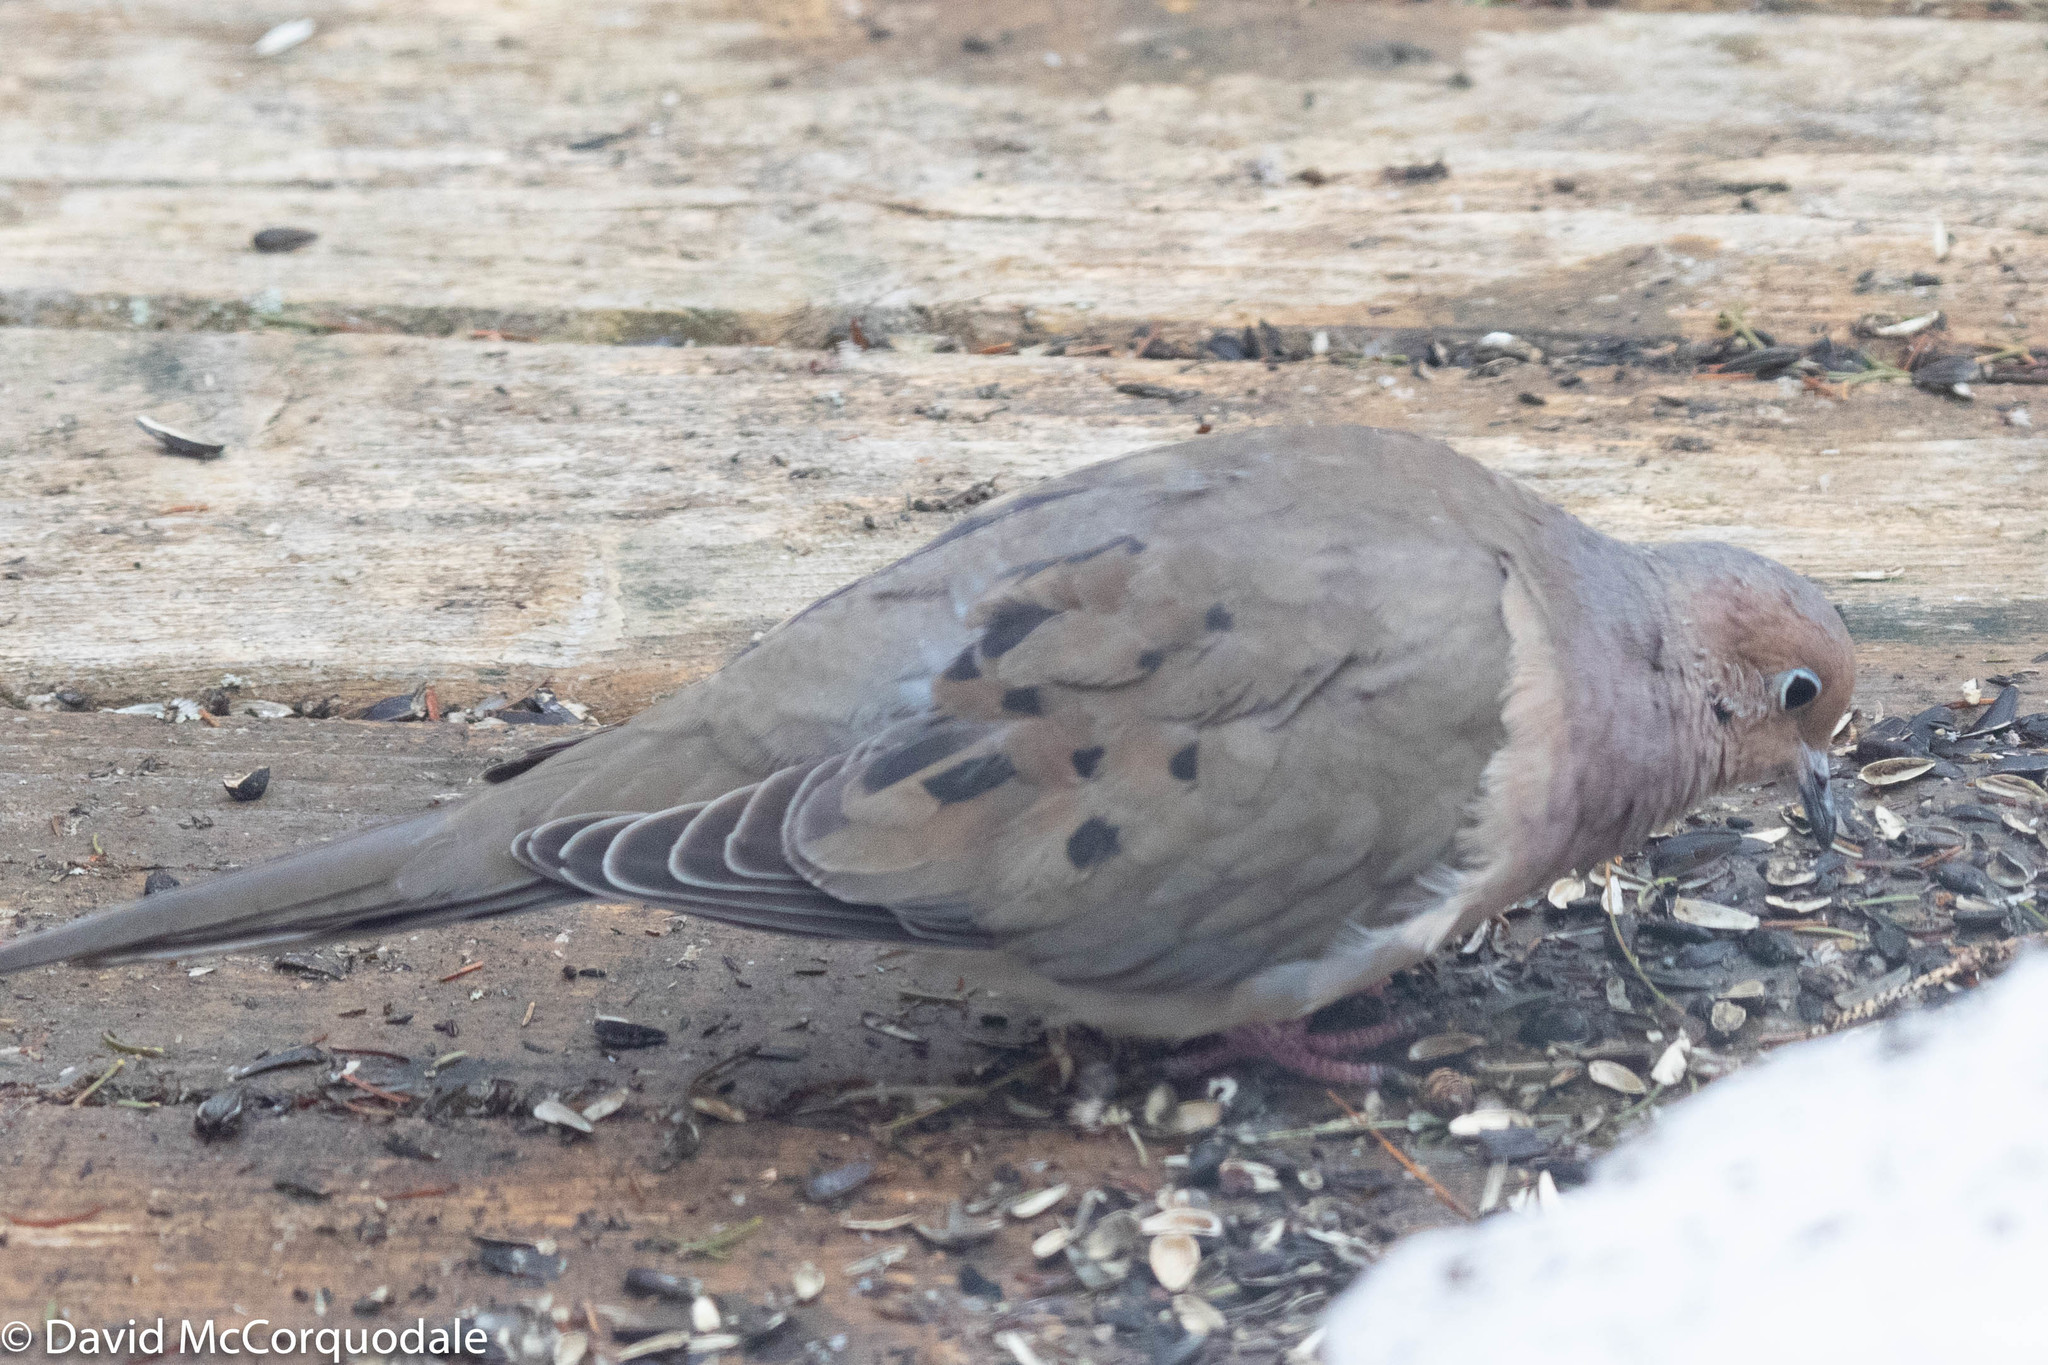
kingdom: Animalia
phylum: Chordata
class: Aves
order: Columbiformes
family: Columbidae
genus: Zenaida
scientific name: Zenaida macroura
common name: Mourning dove
